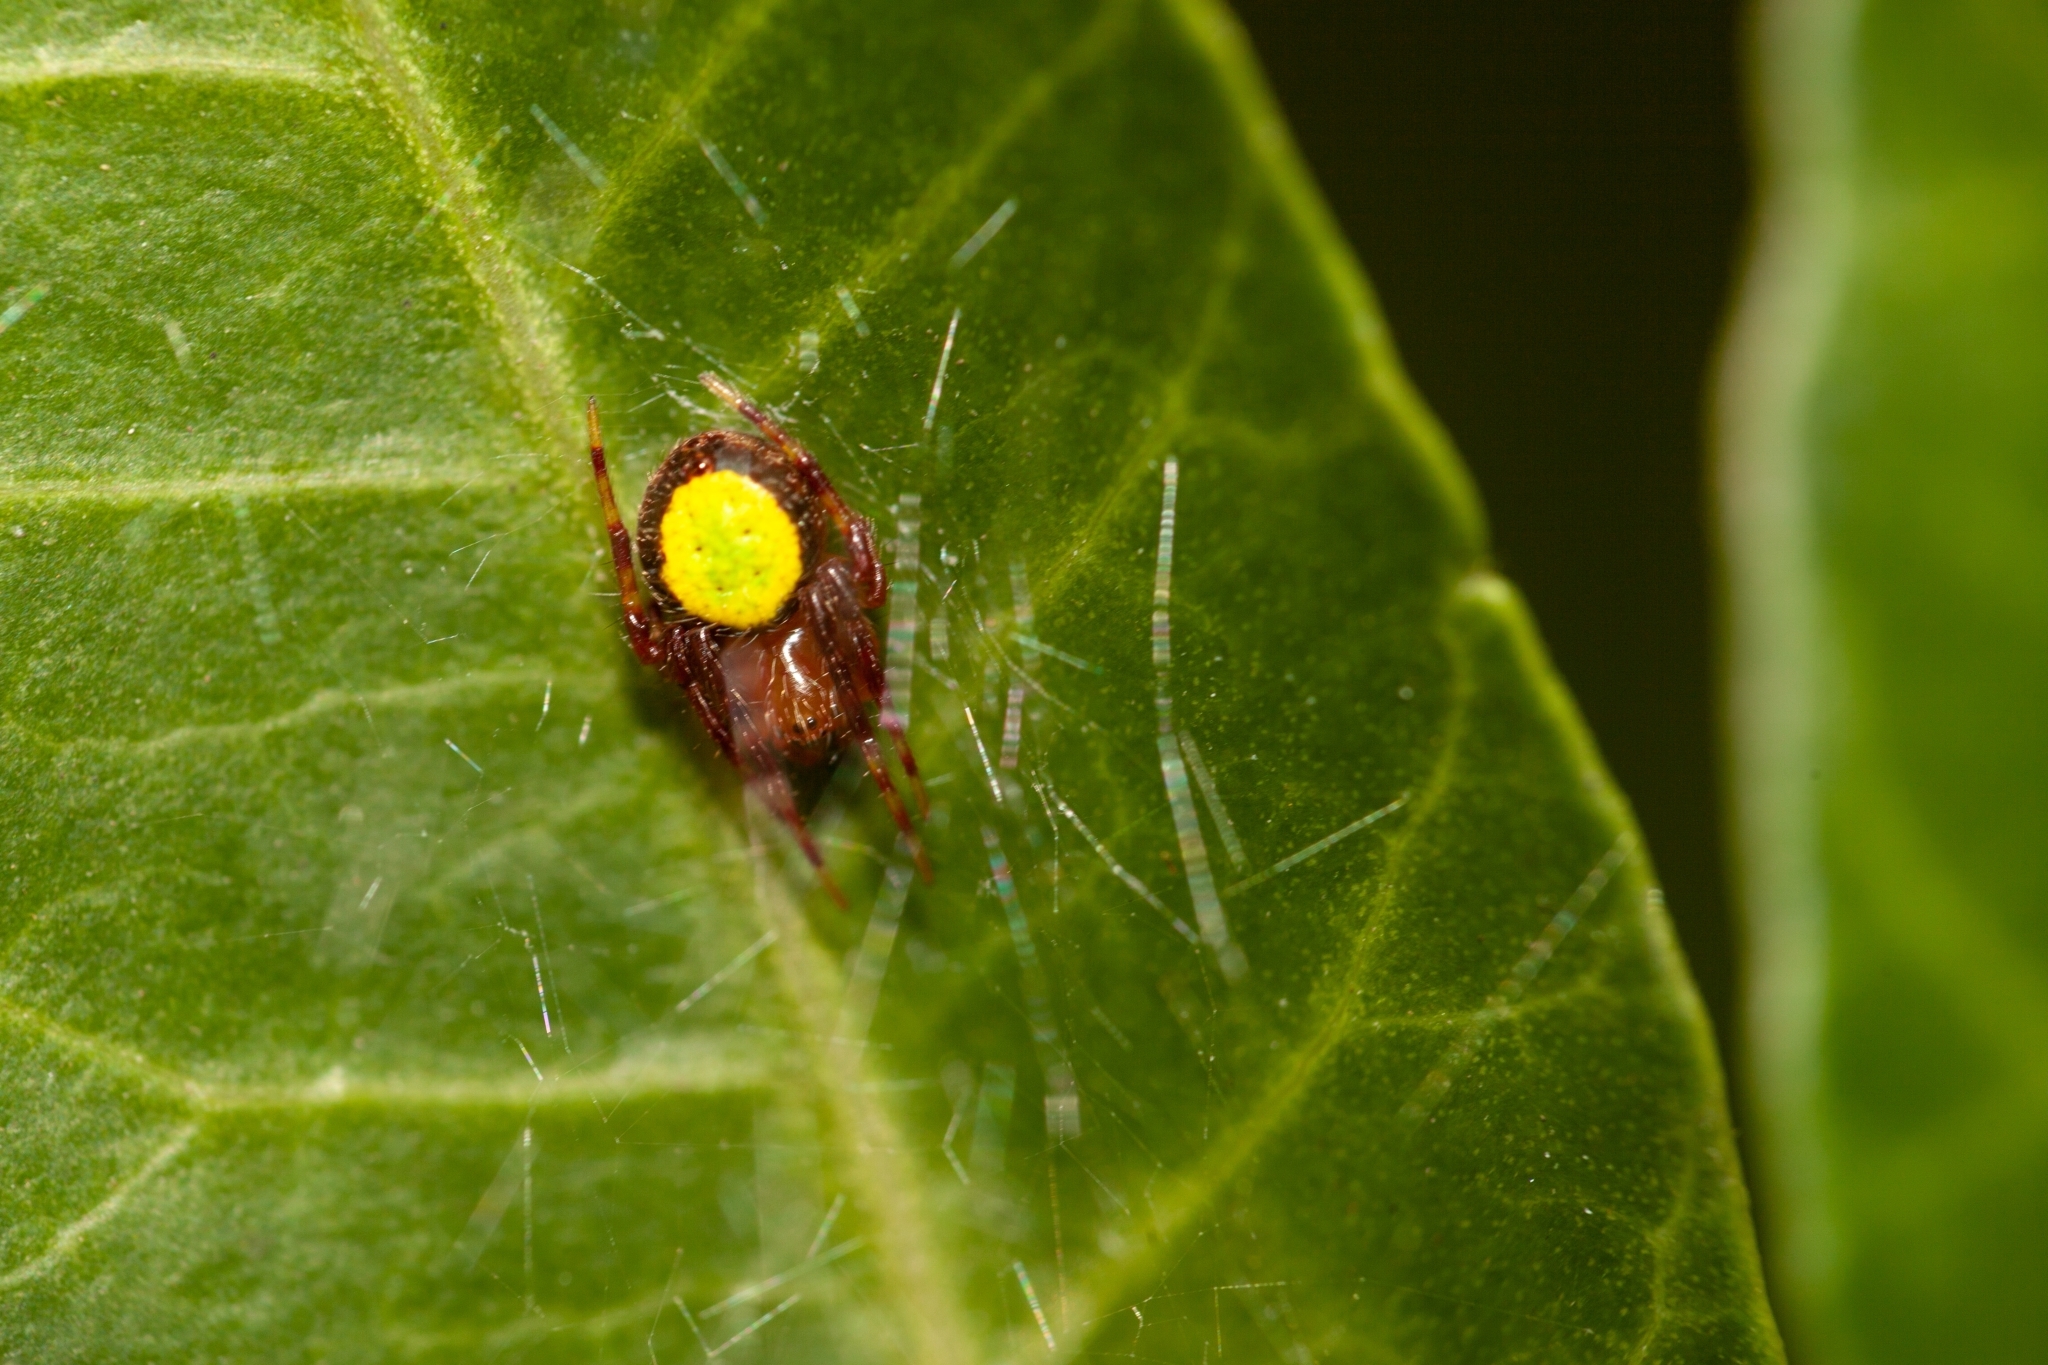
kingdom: Animalia
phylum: Arthropoda
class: Arachnida
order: Araneae
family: Araneidae
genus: Eriophora
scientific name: Eriophora ravilla
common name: Orb weavers
